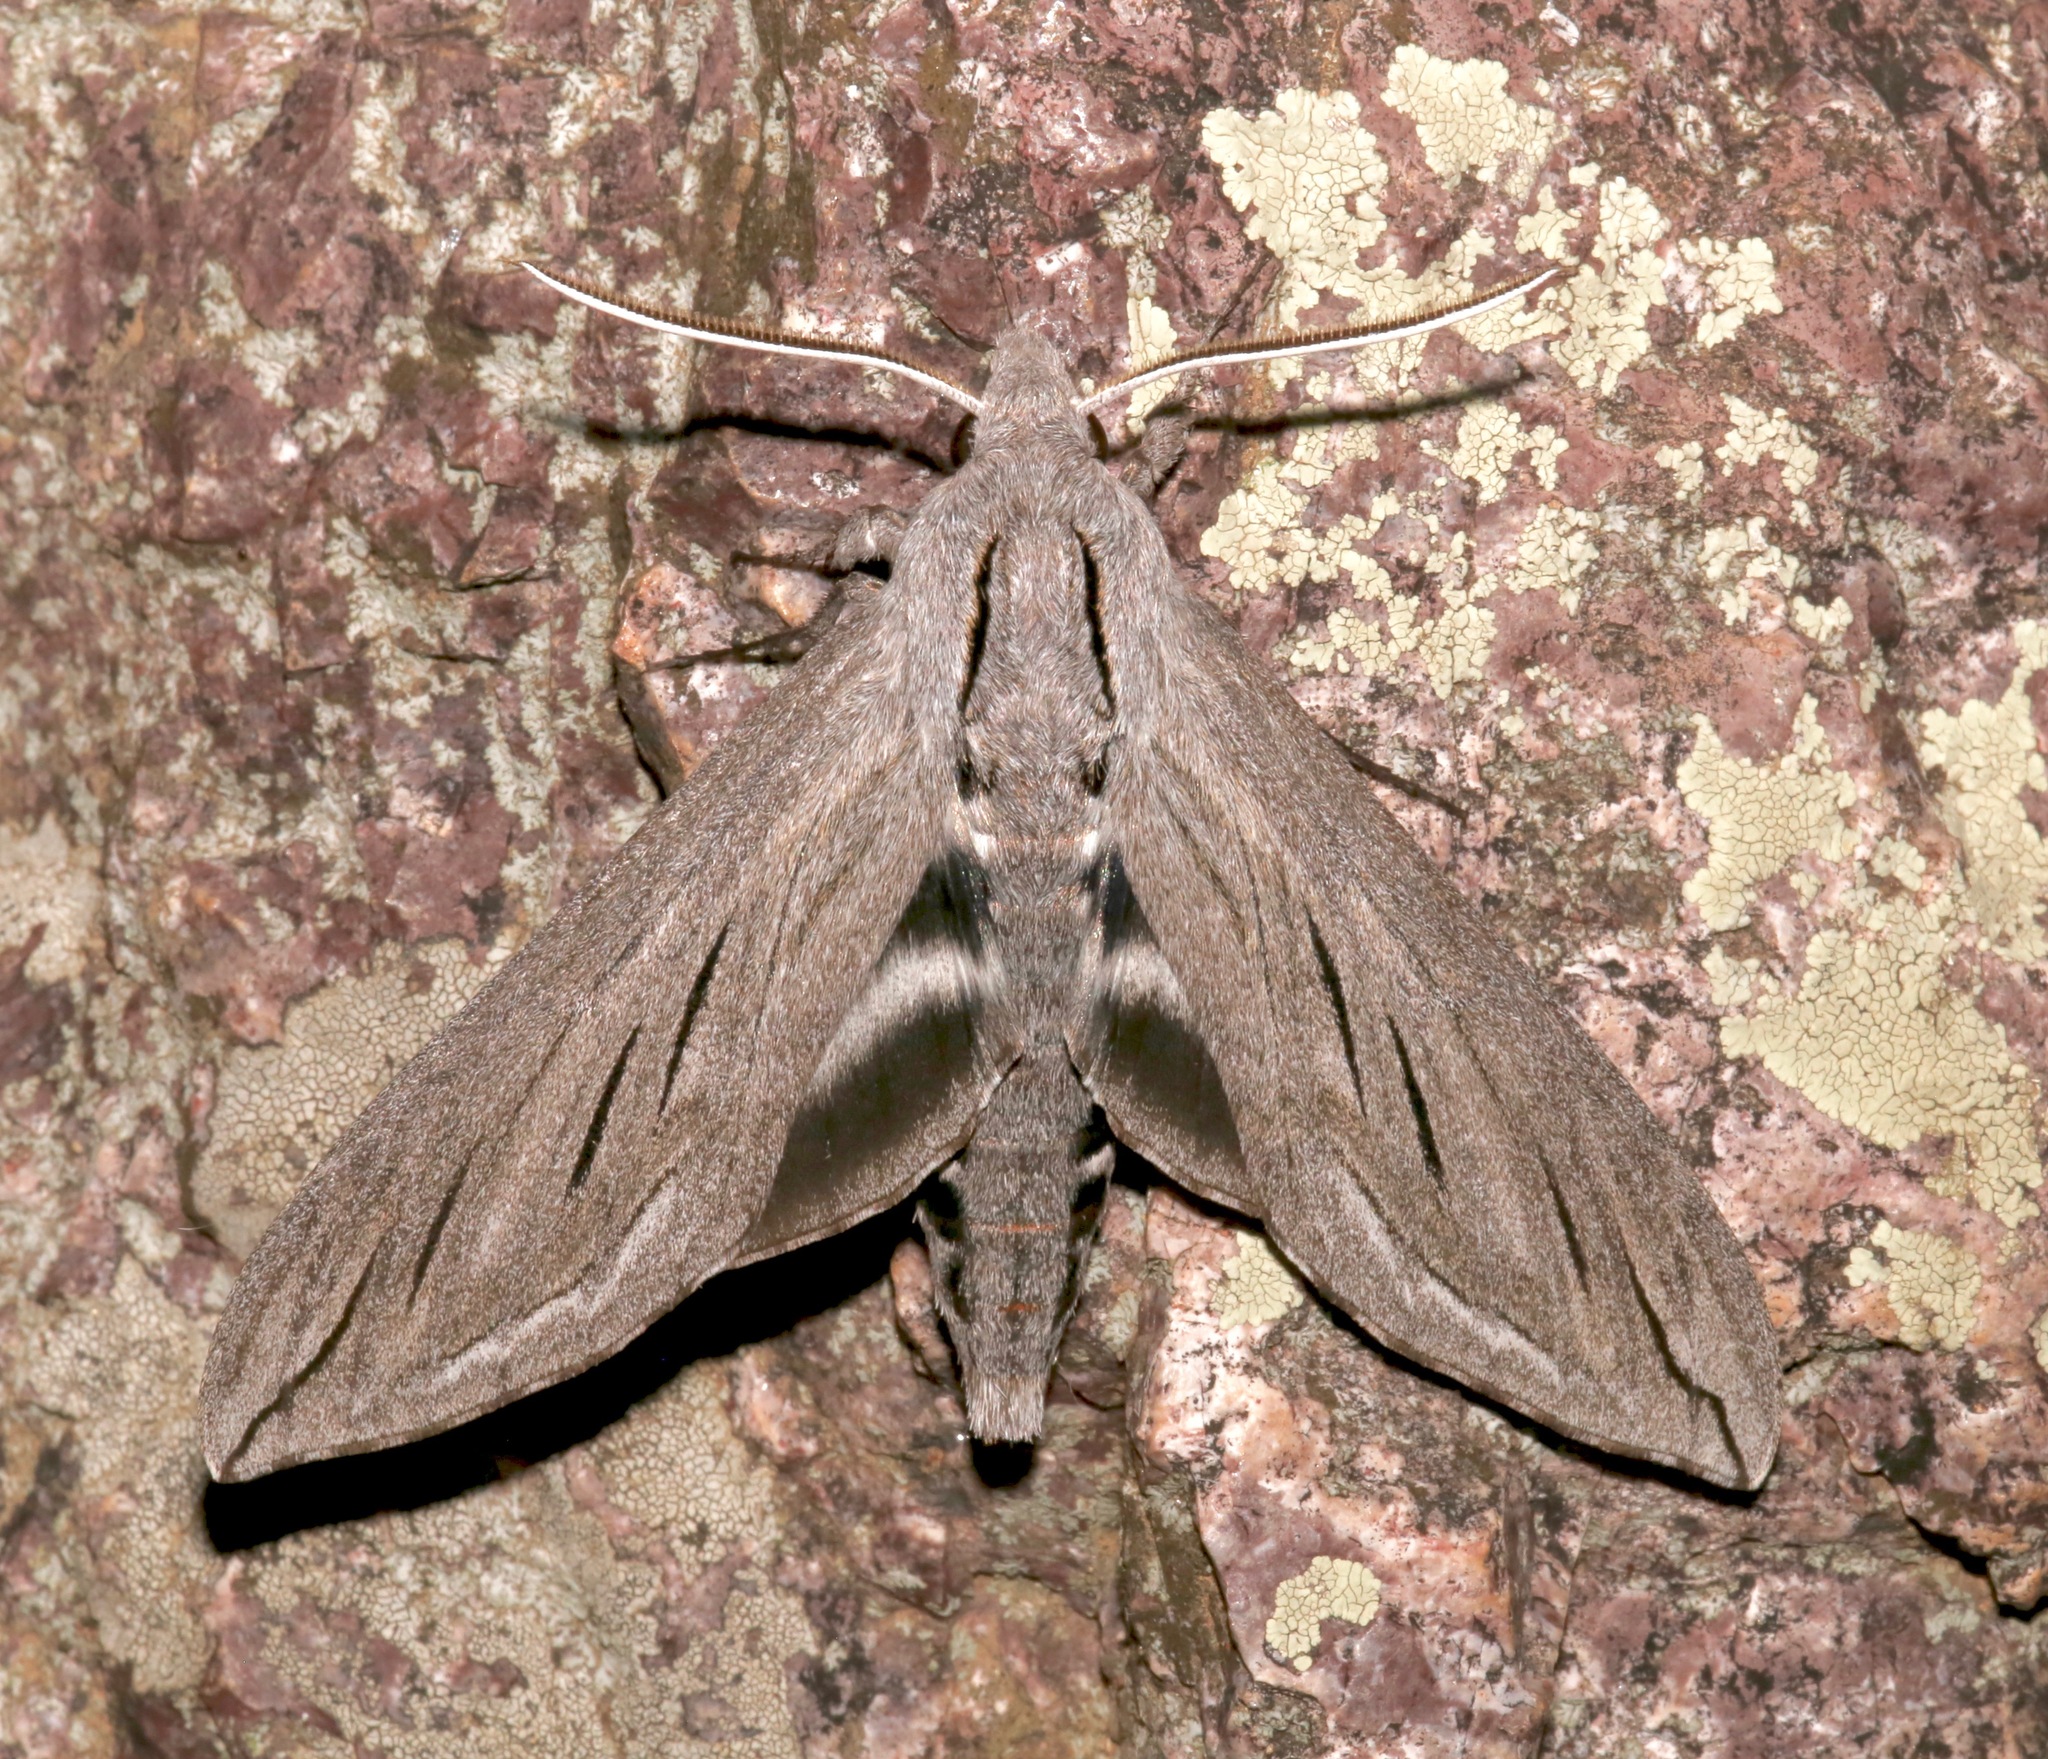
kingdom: Animalia
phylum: Arthropoda
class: Insecta
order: Lepidoptera
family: Sphingidae
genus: Sphinx
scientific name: Sphinx chersis
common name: Great ash sphinx
